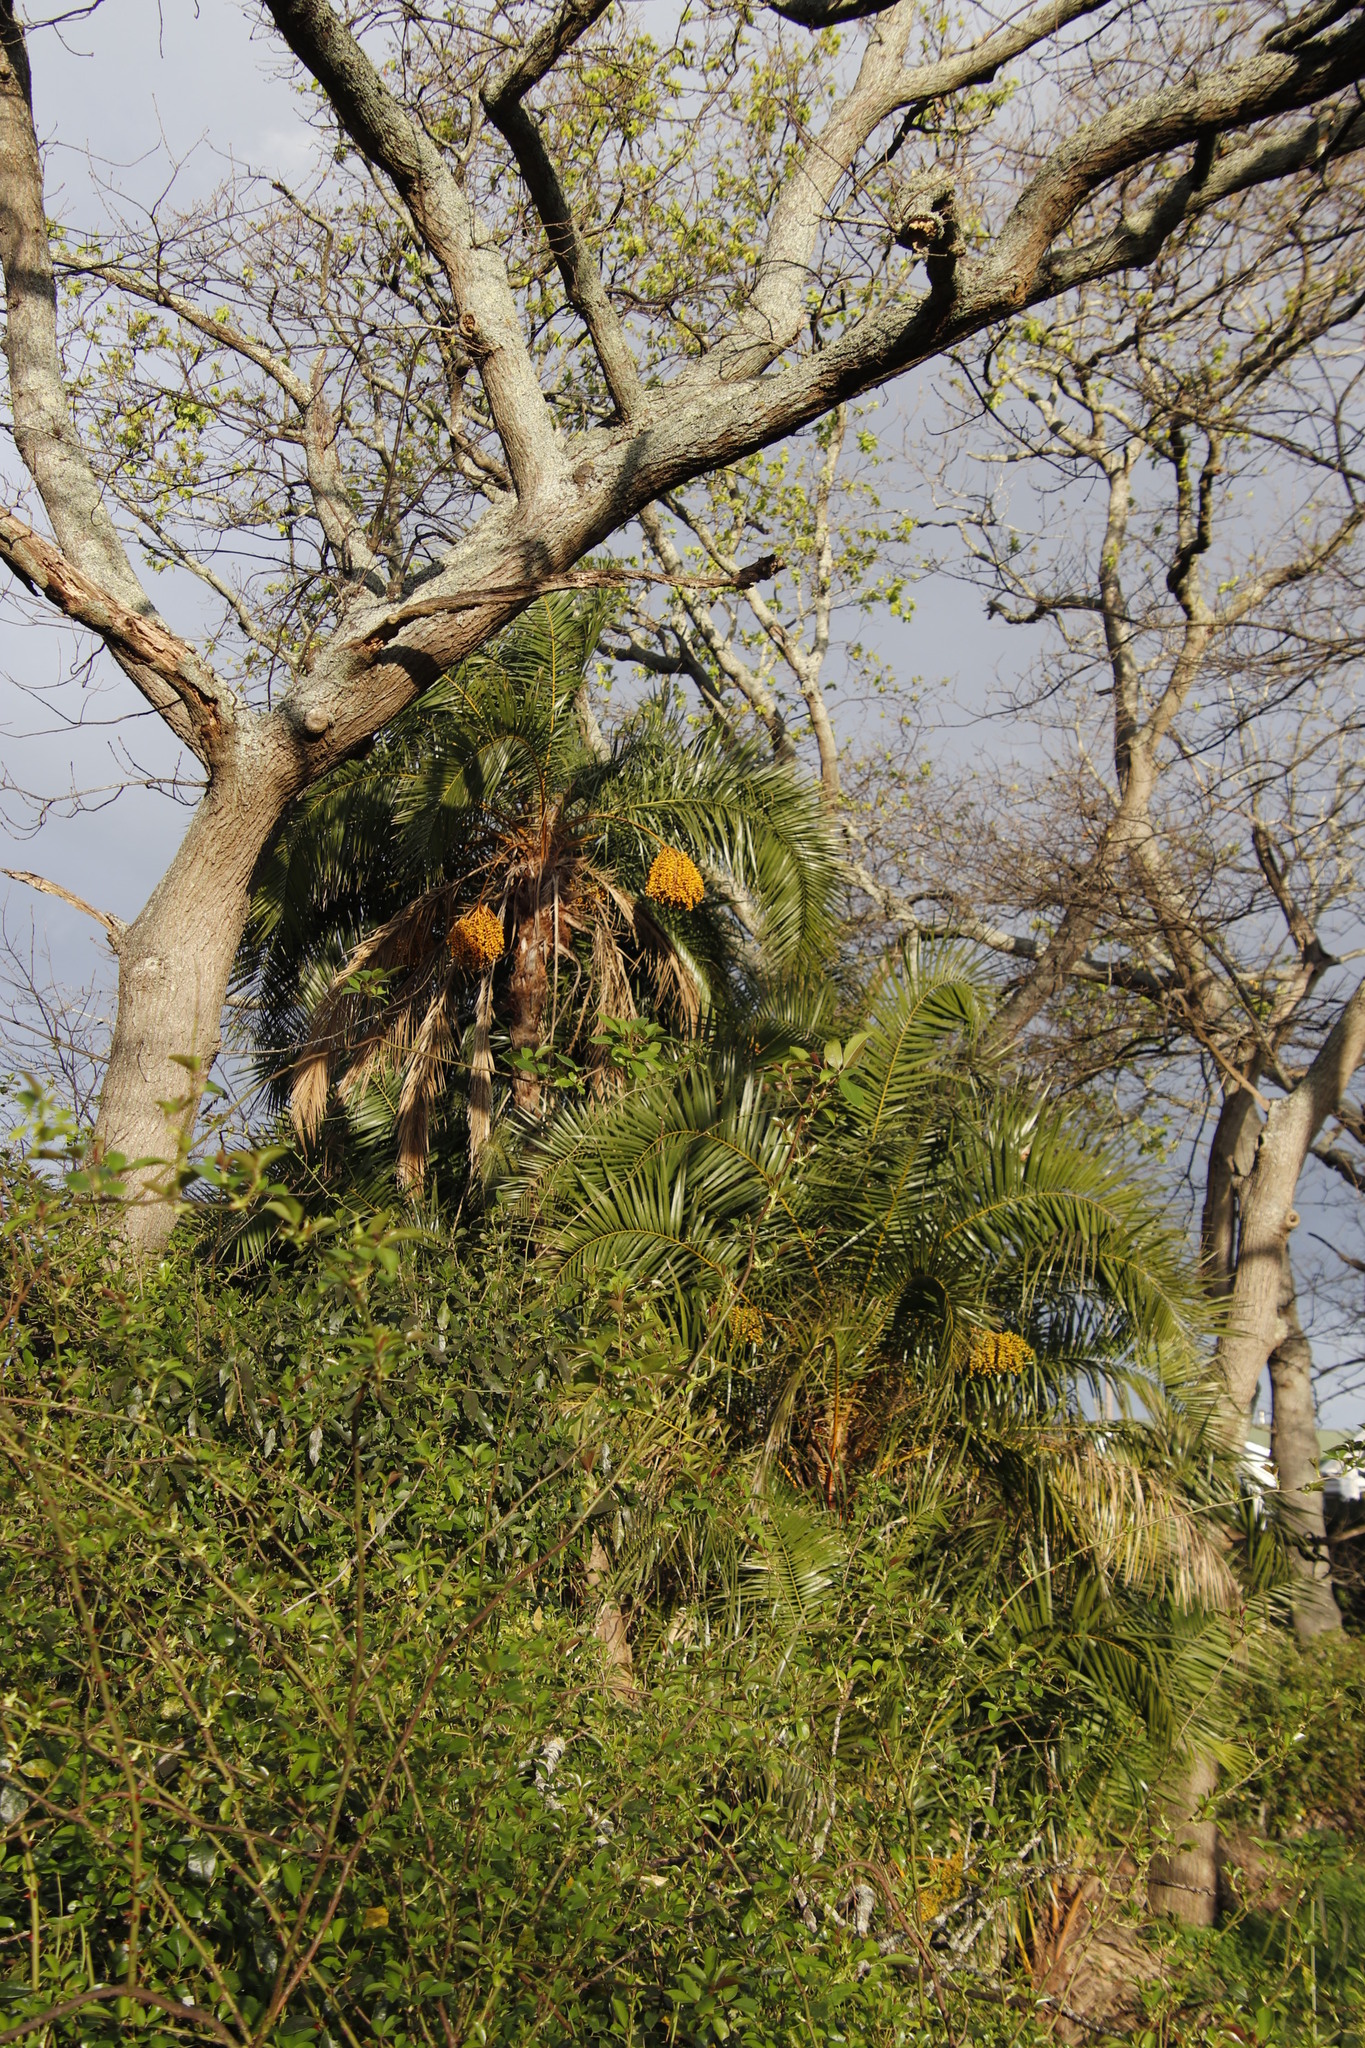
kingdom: Plantae
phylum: Tracheophyta
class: Liliopsida
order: Arecales
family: Arecaceae
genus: Phoenix
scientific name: Phoenix reclinata
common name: Senegal date palm
